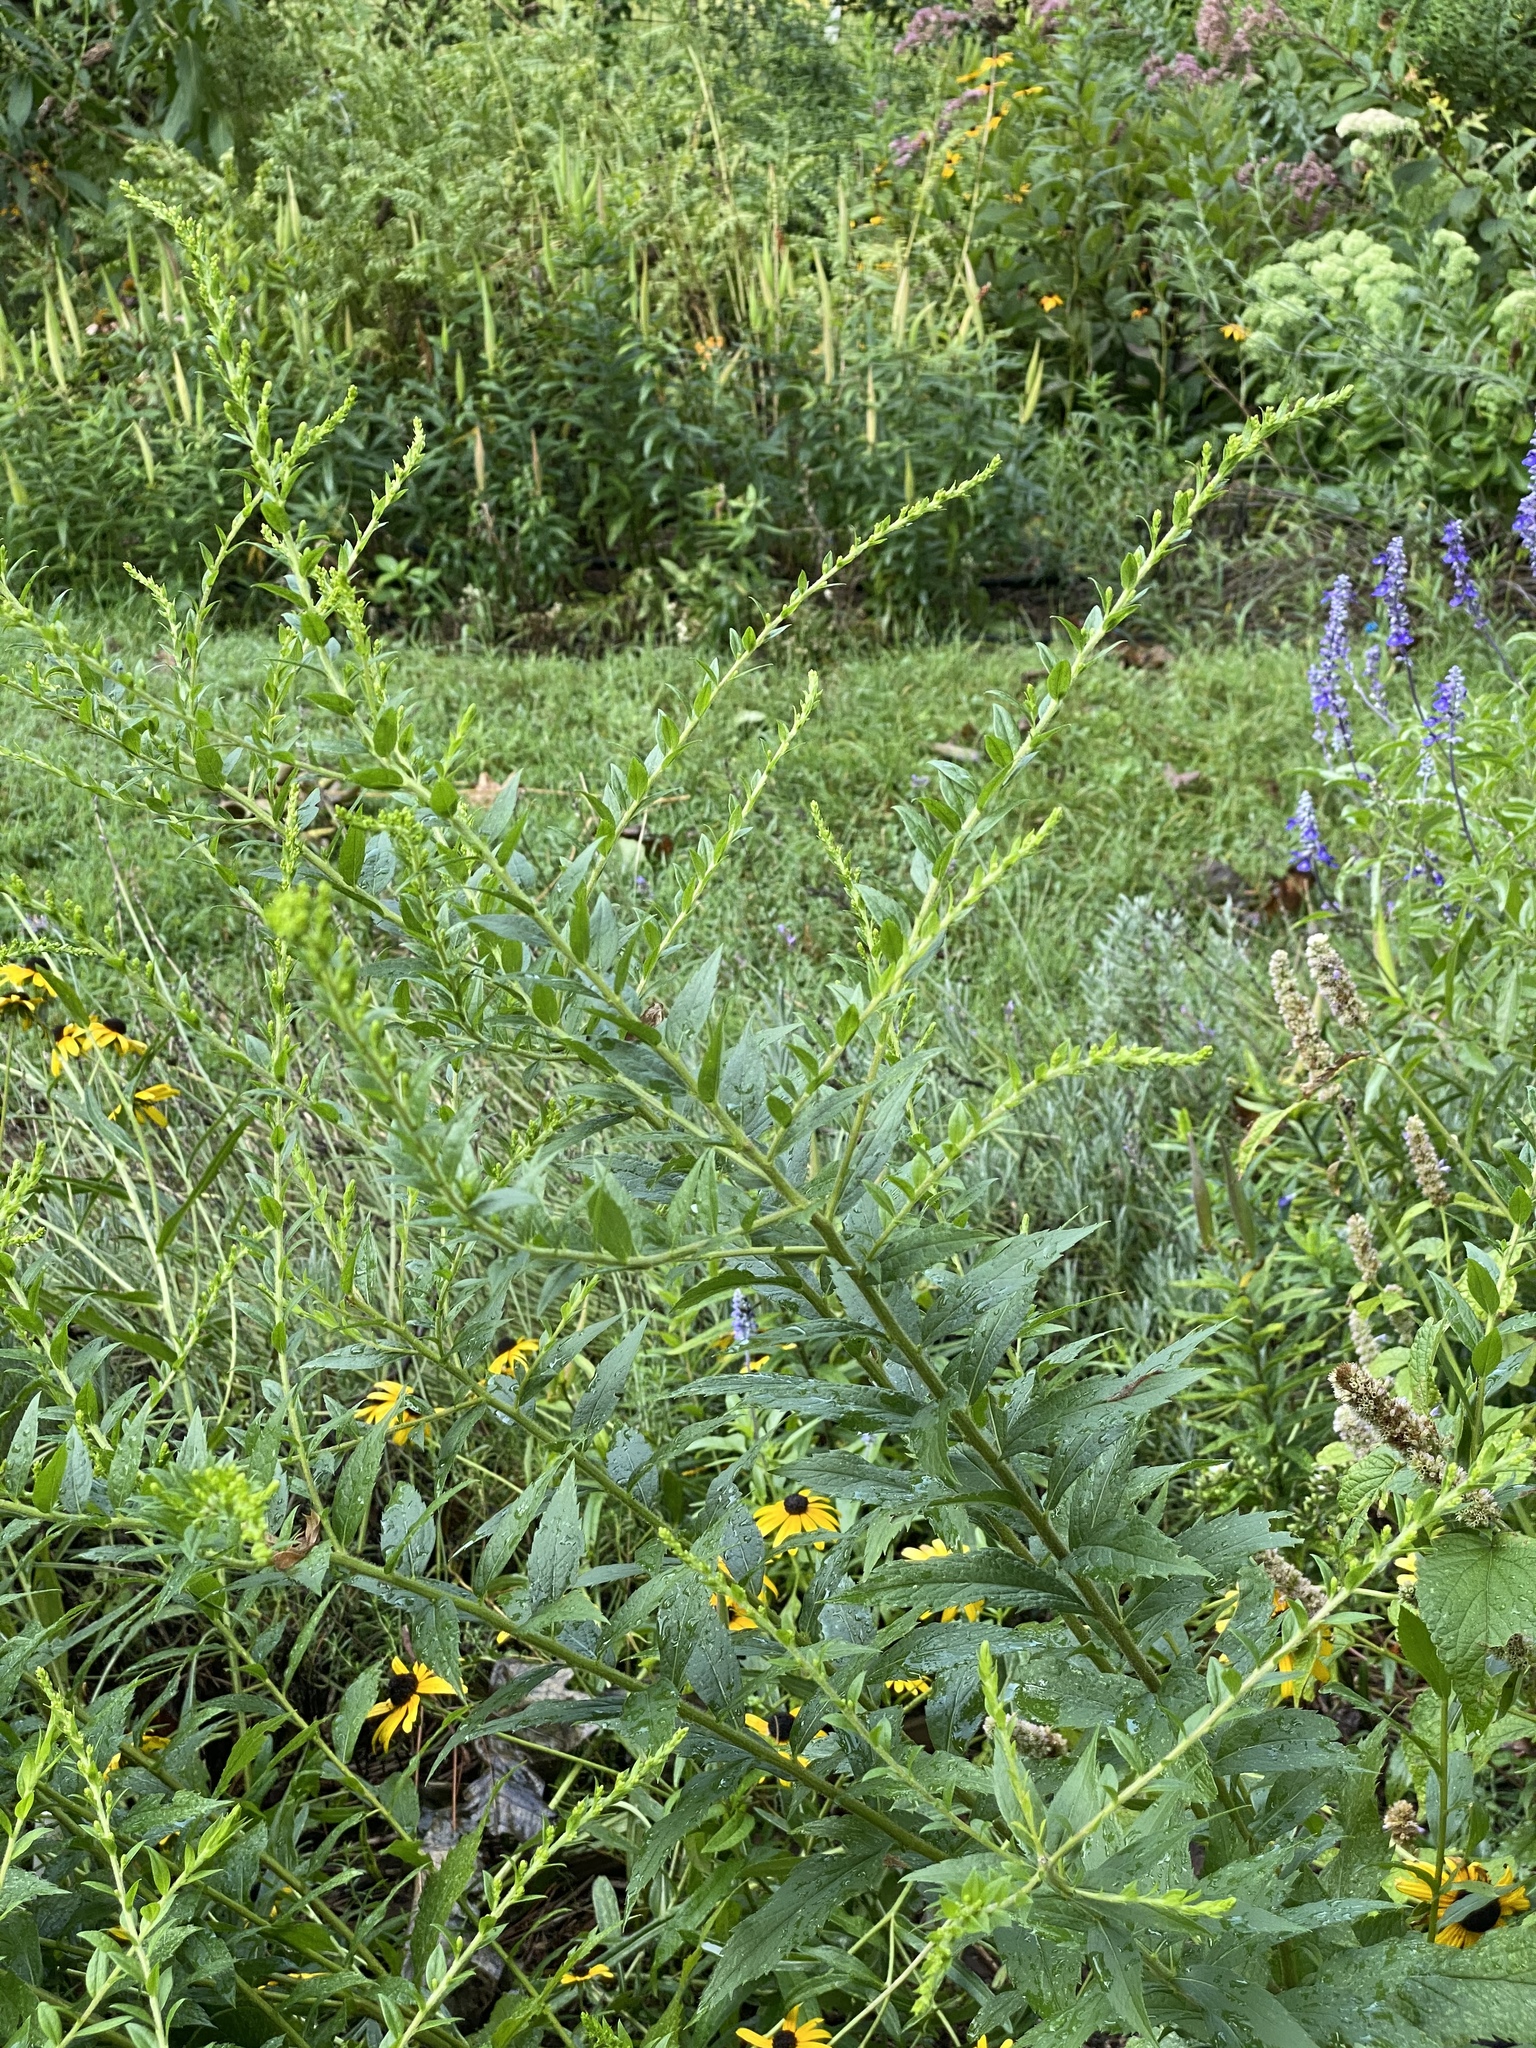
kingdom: Plantae
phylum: Tracheophyta
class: Magnoliopsida
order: Asterales
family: Asteraceae
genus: Solidago
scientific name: Solidago rugosa
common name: Rough-stemmed goldenrod
